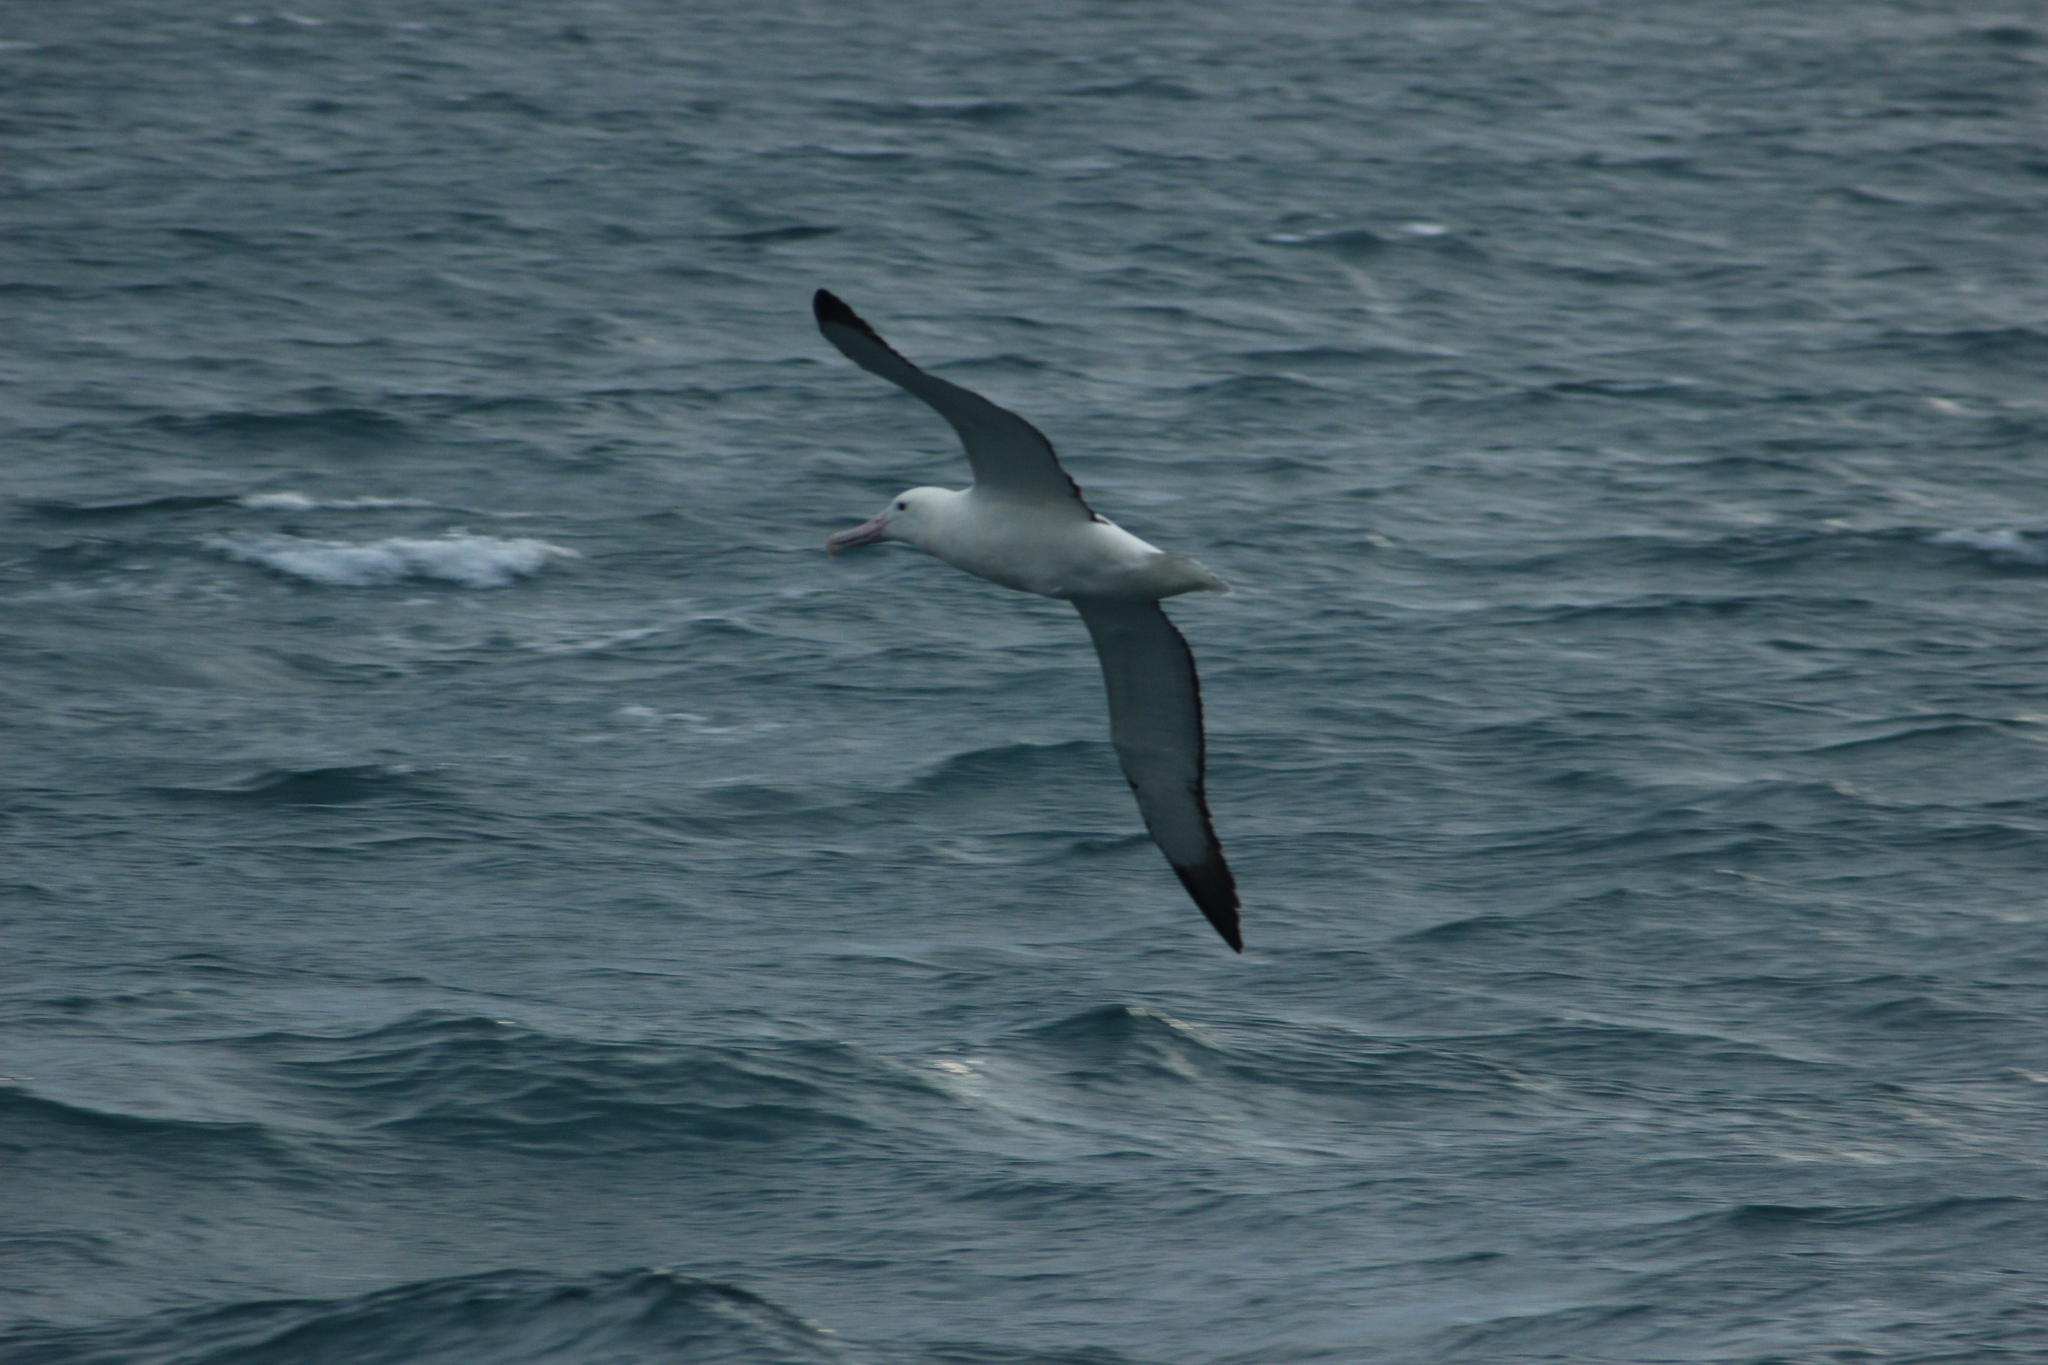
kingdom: Animalia
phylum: Chordata
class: Aves
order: Procellariiformes
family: Diomedeidae
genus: Diomedea
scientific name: Diomedea sanfordi
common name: Northern royal albatross
